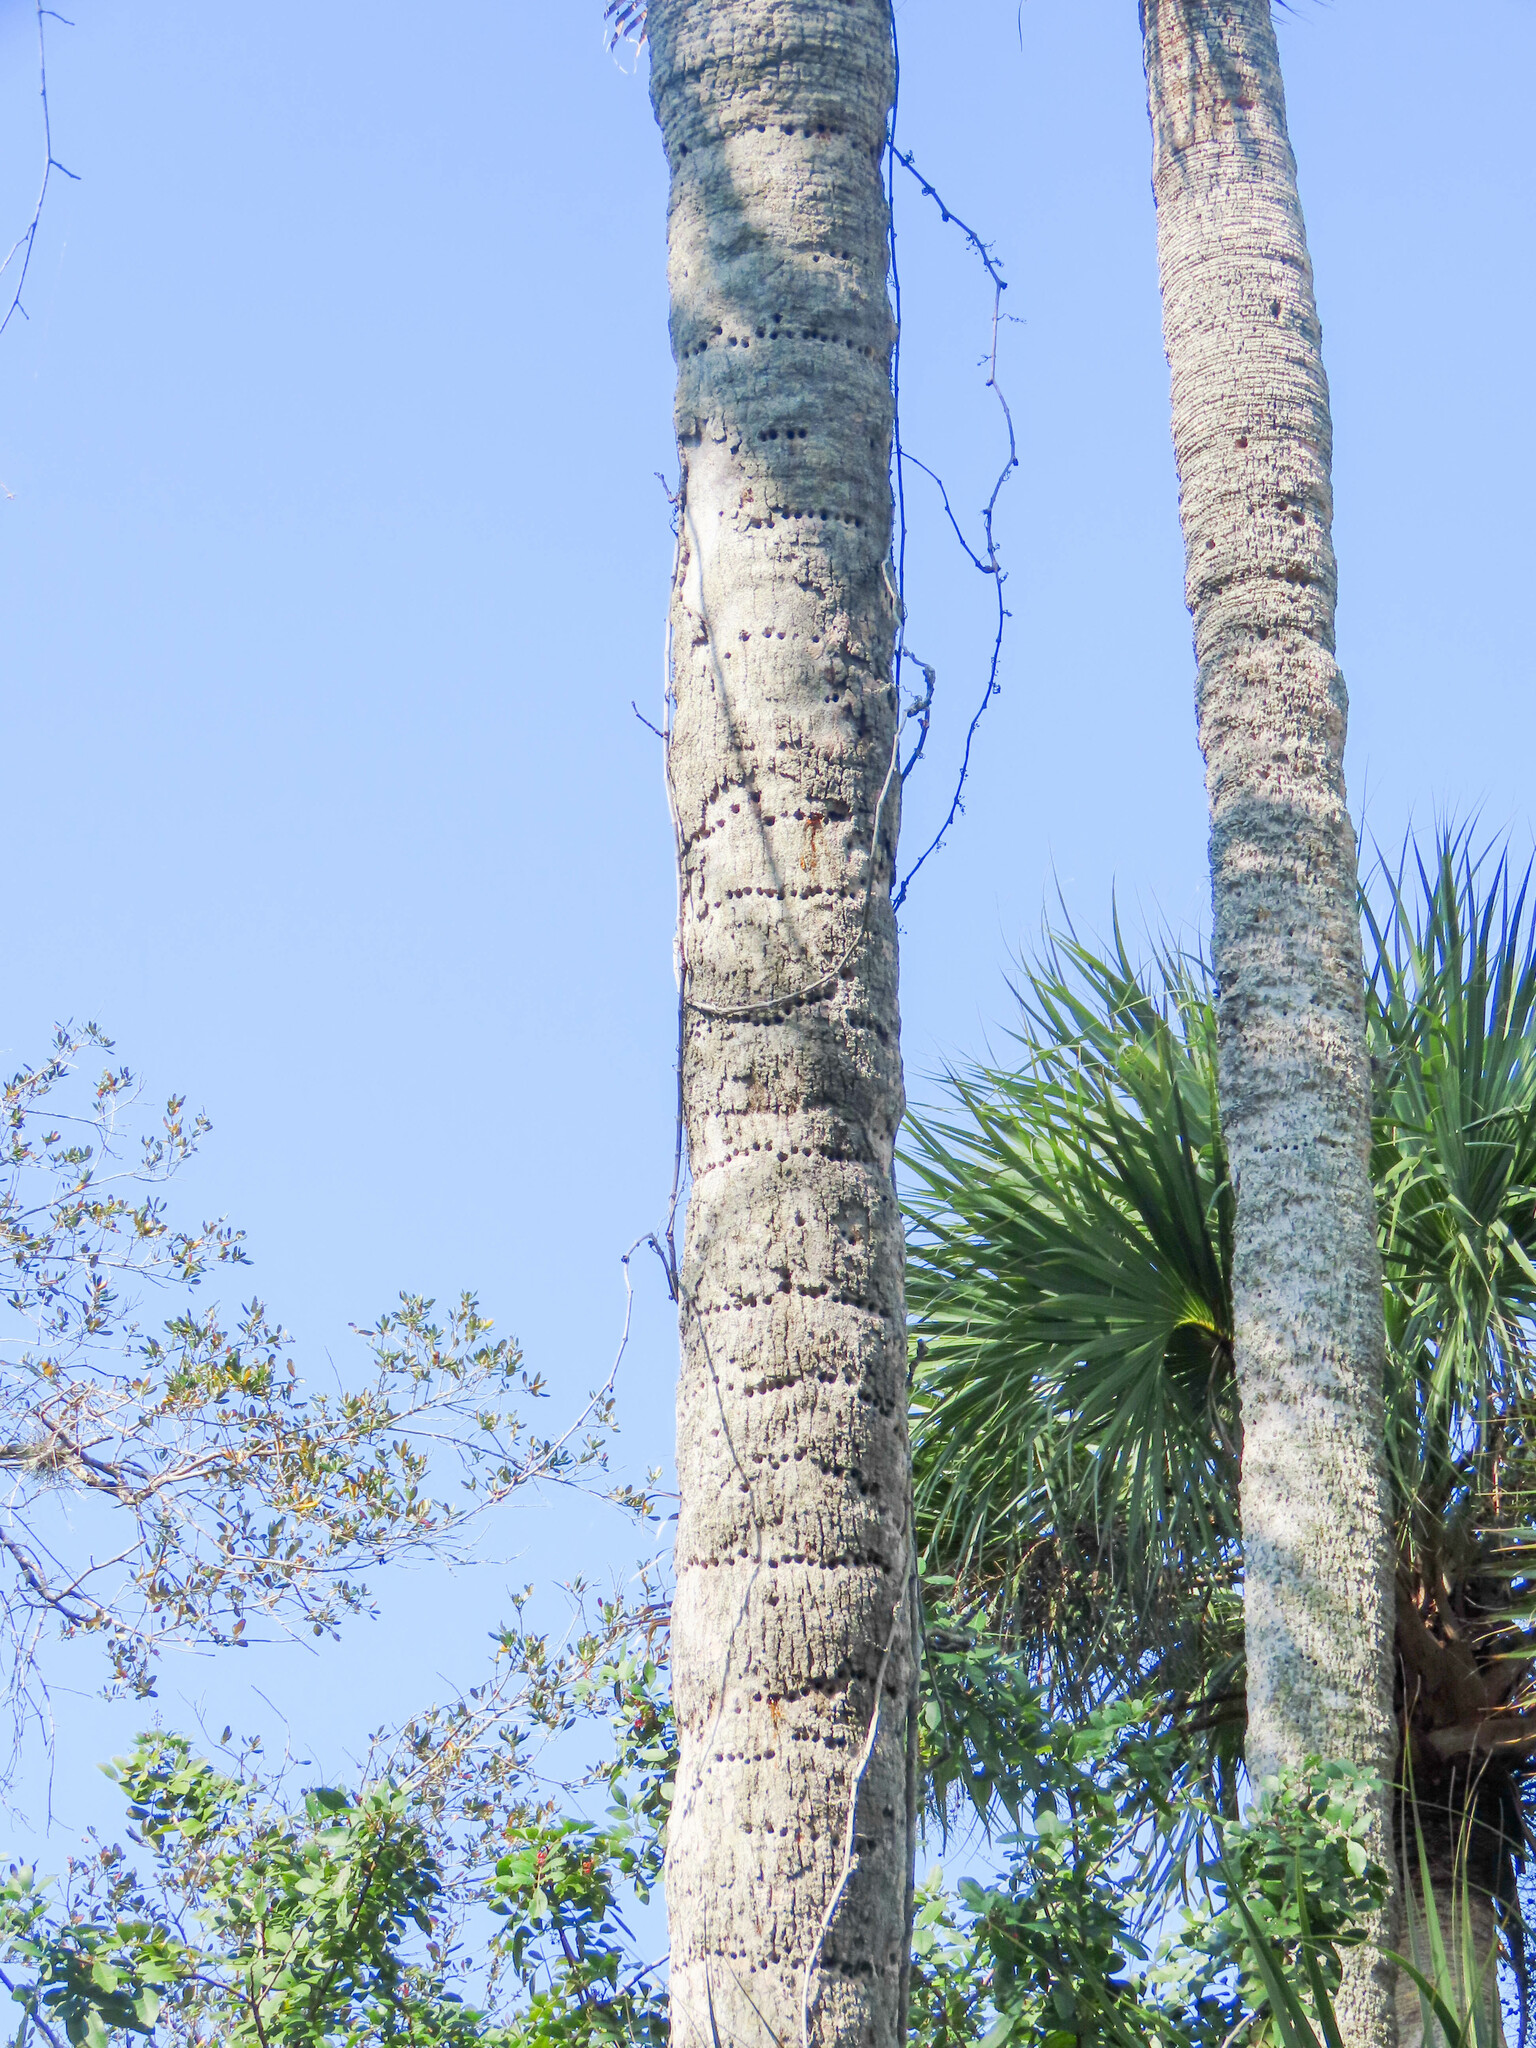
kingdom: Animalia
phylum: Chordata
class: Aves
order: Piciformes
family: Picidae
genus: Sphyrapicus
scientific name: Sphyrapicus varius
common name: Yellow-bellied sapsucker
